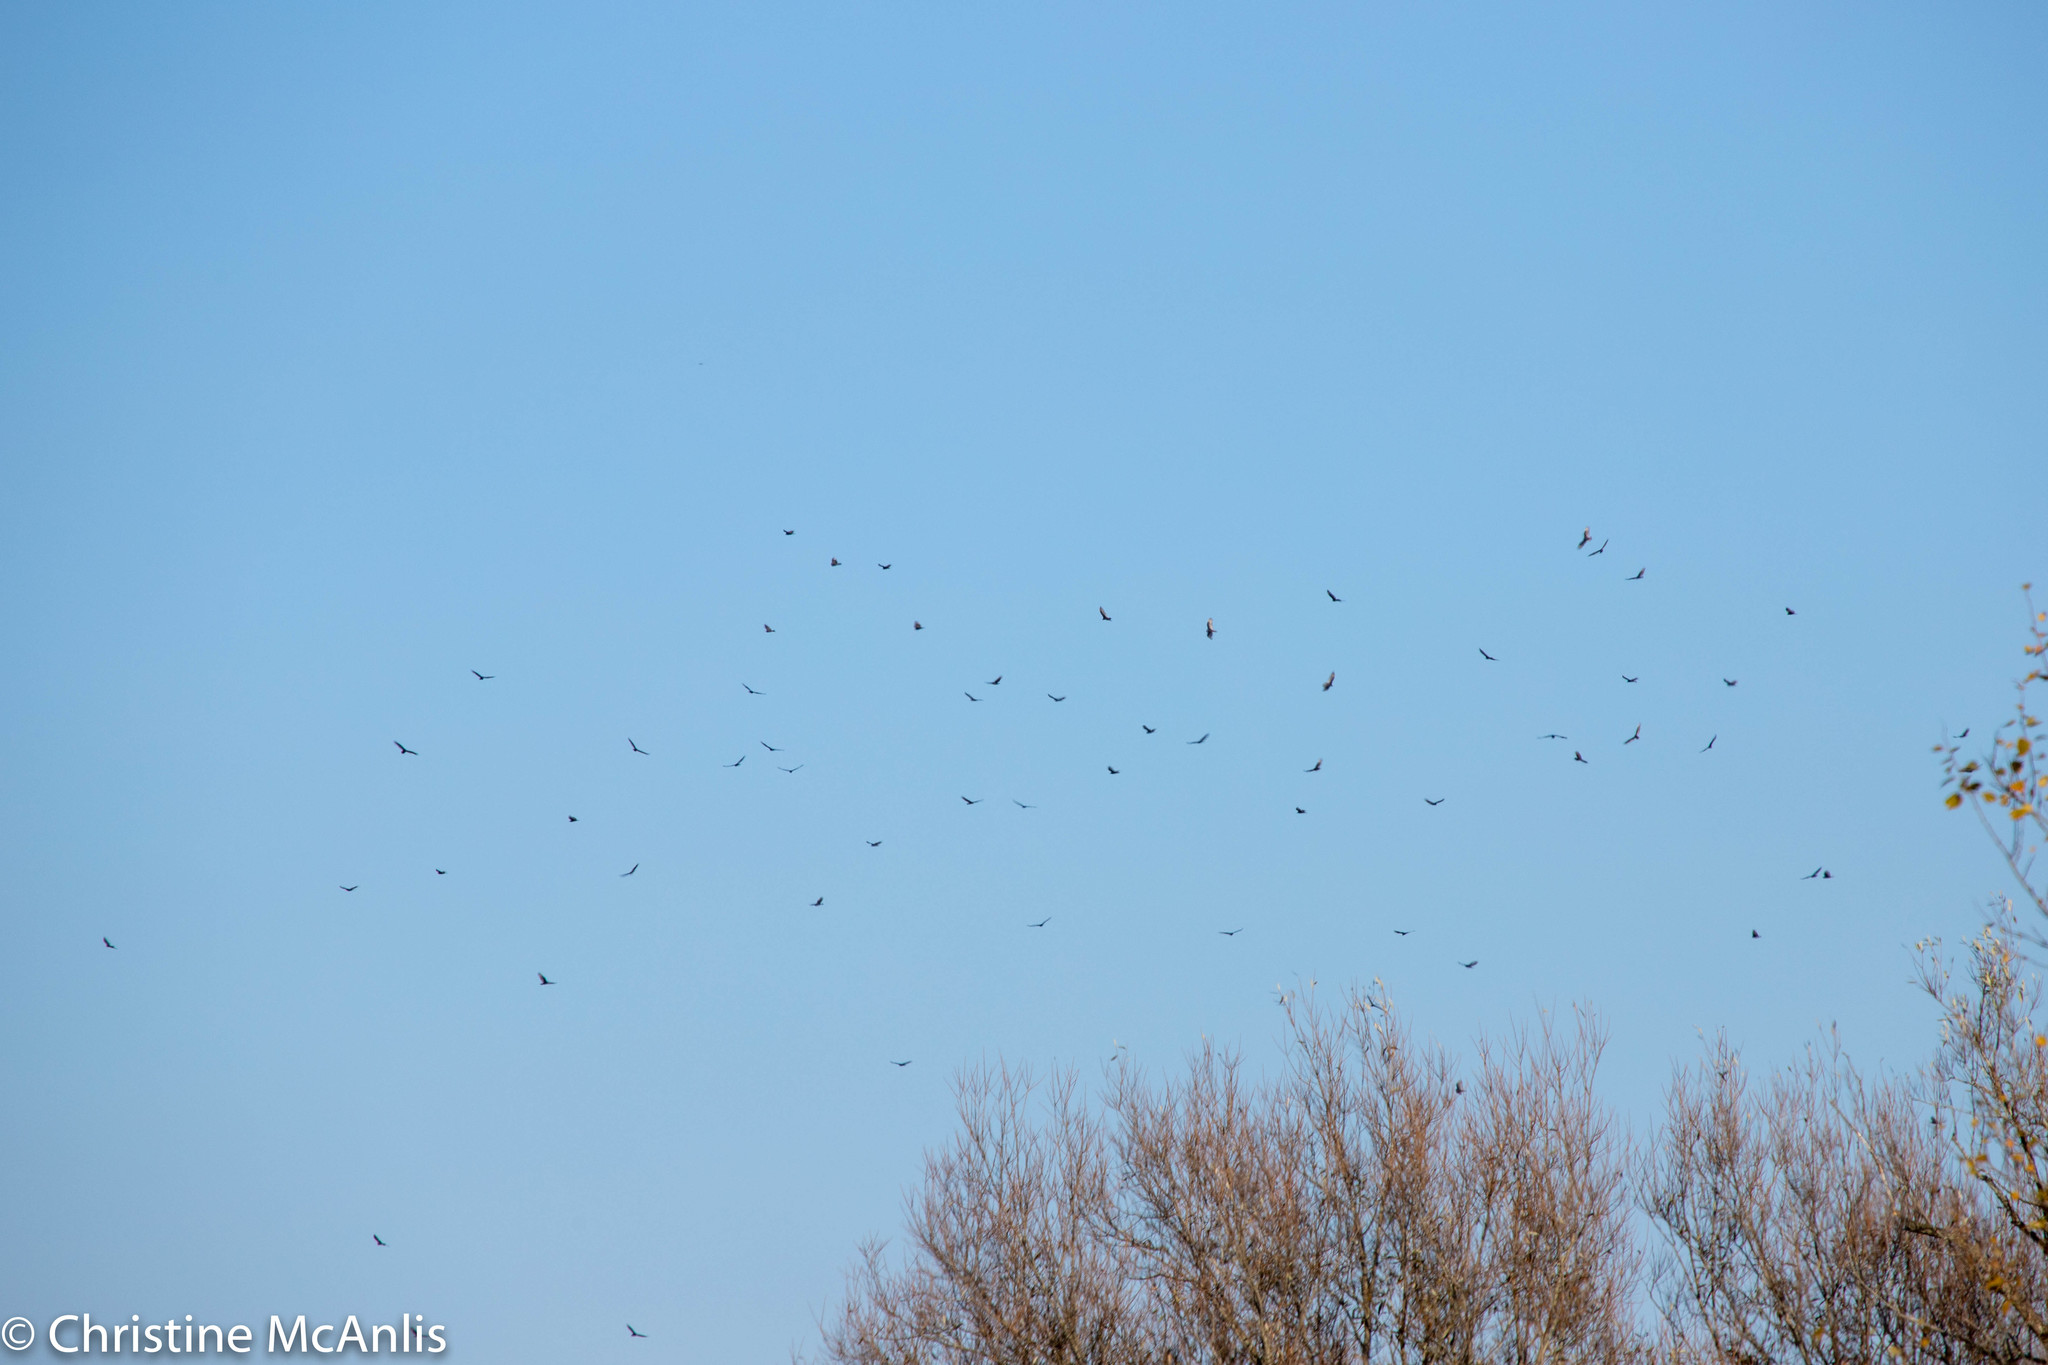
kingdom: Animalia
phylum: Chordata
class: Aves
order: Accipitriformes
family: Cathartidae
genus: Cathartes
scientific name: Cathartes aura
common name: Turkey vulture
